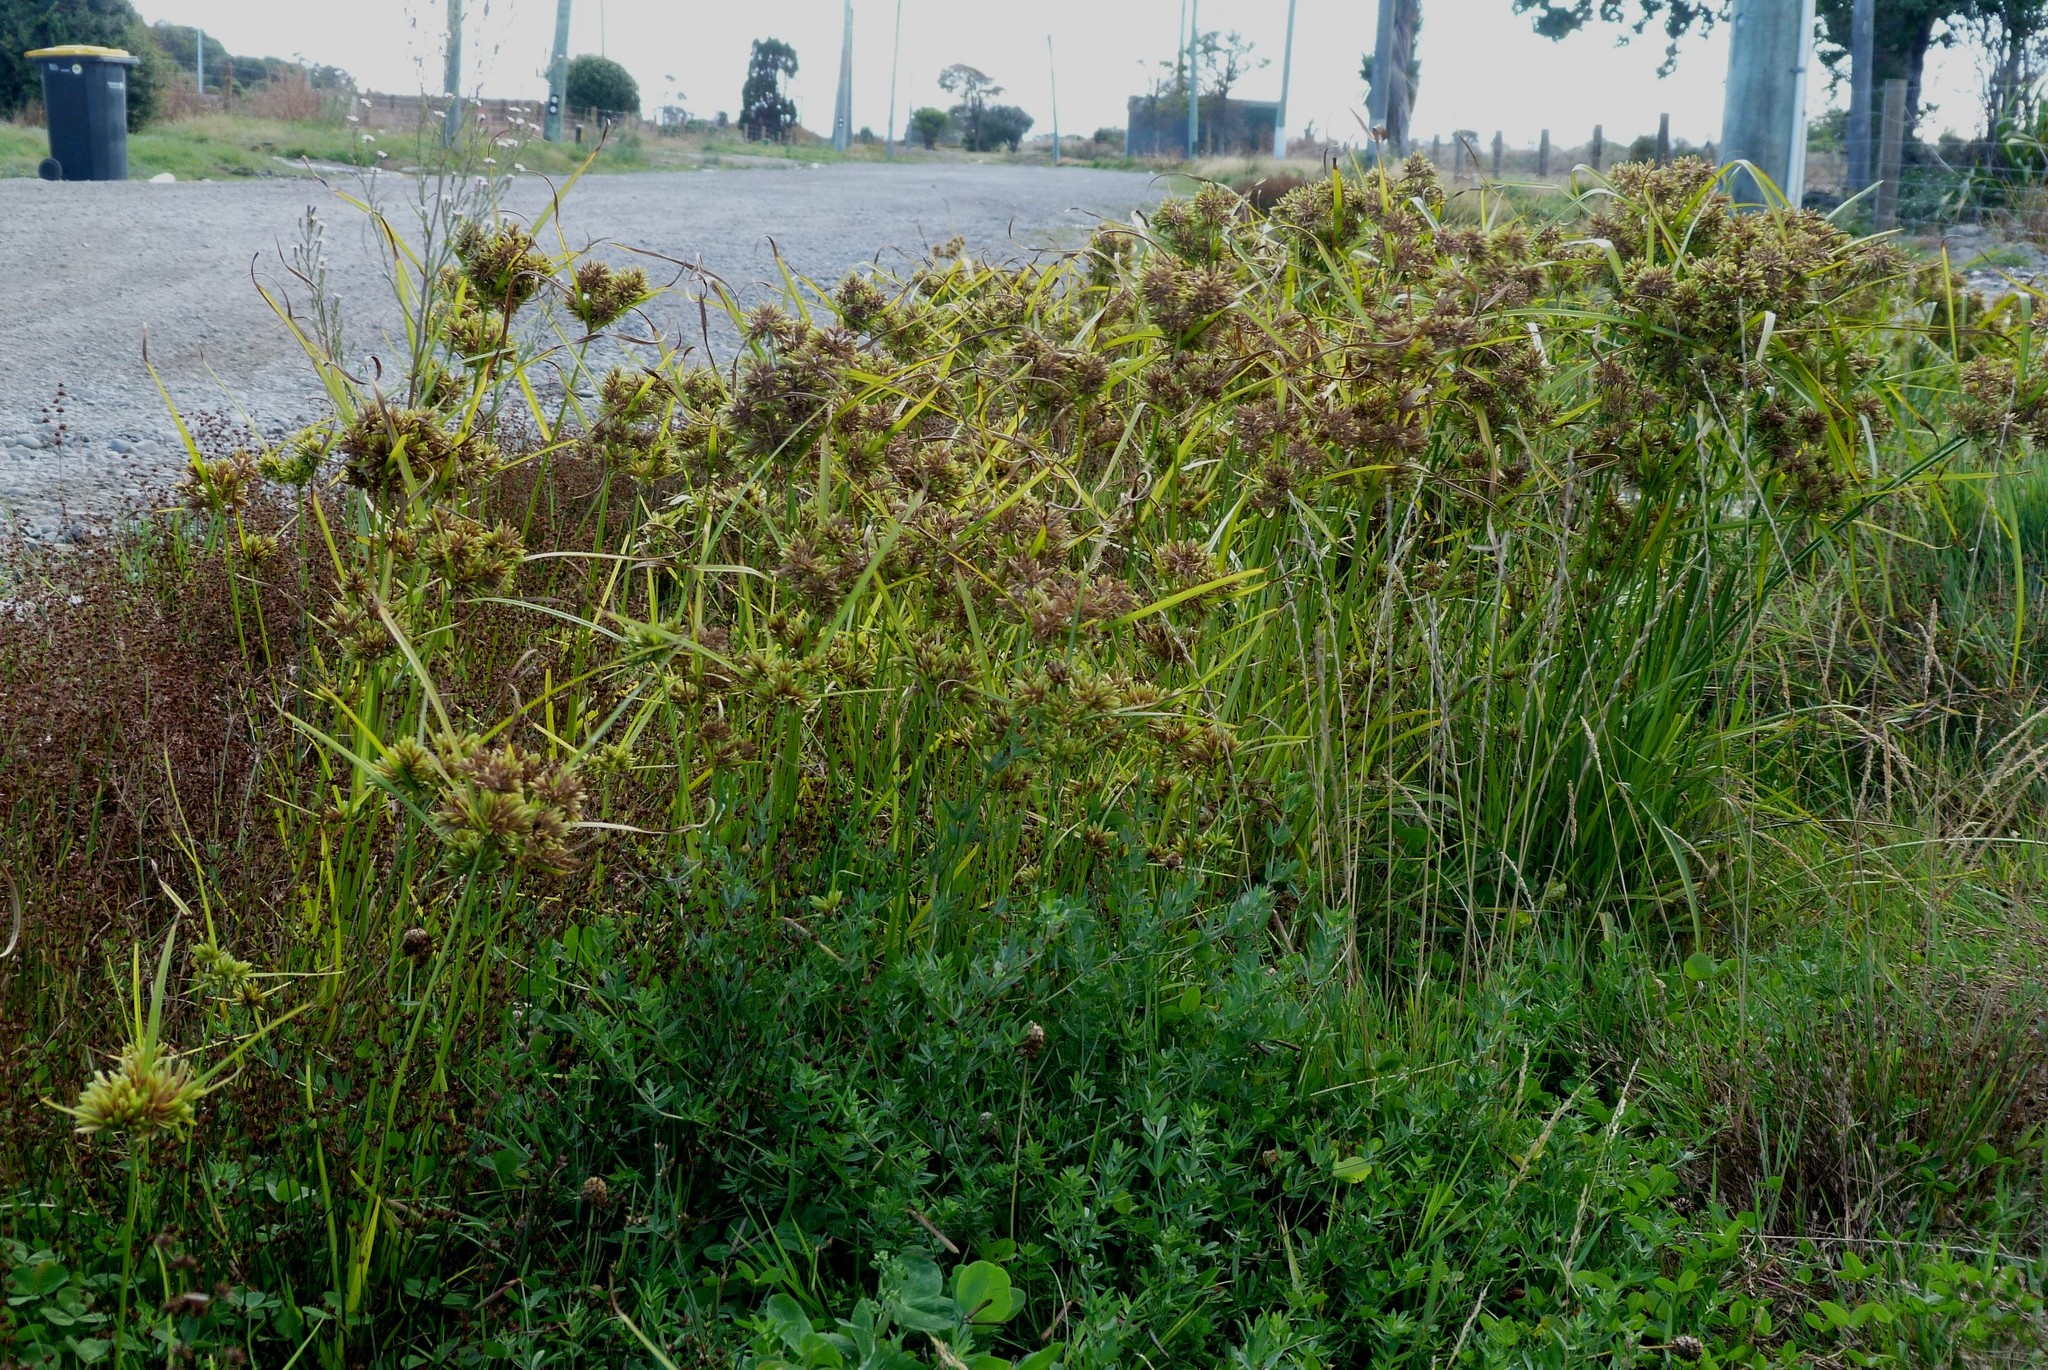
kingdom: Plantae
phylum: Tracheophyta
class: Liliopsida
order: Poales
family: Cyperaceae
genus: Cyperus
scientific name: Cyperus eragrostis
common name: Tall flatsedge
